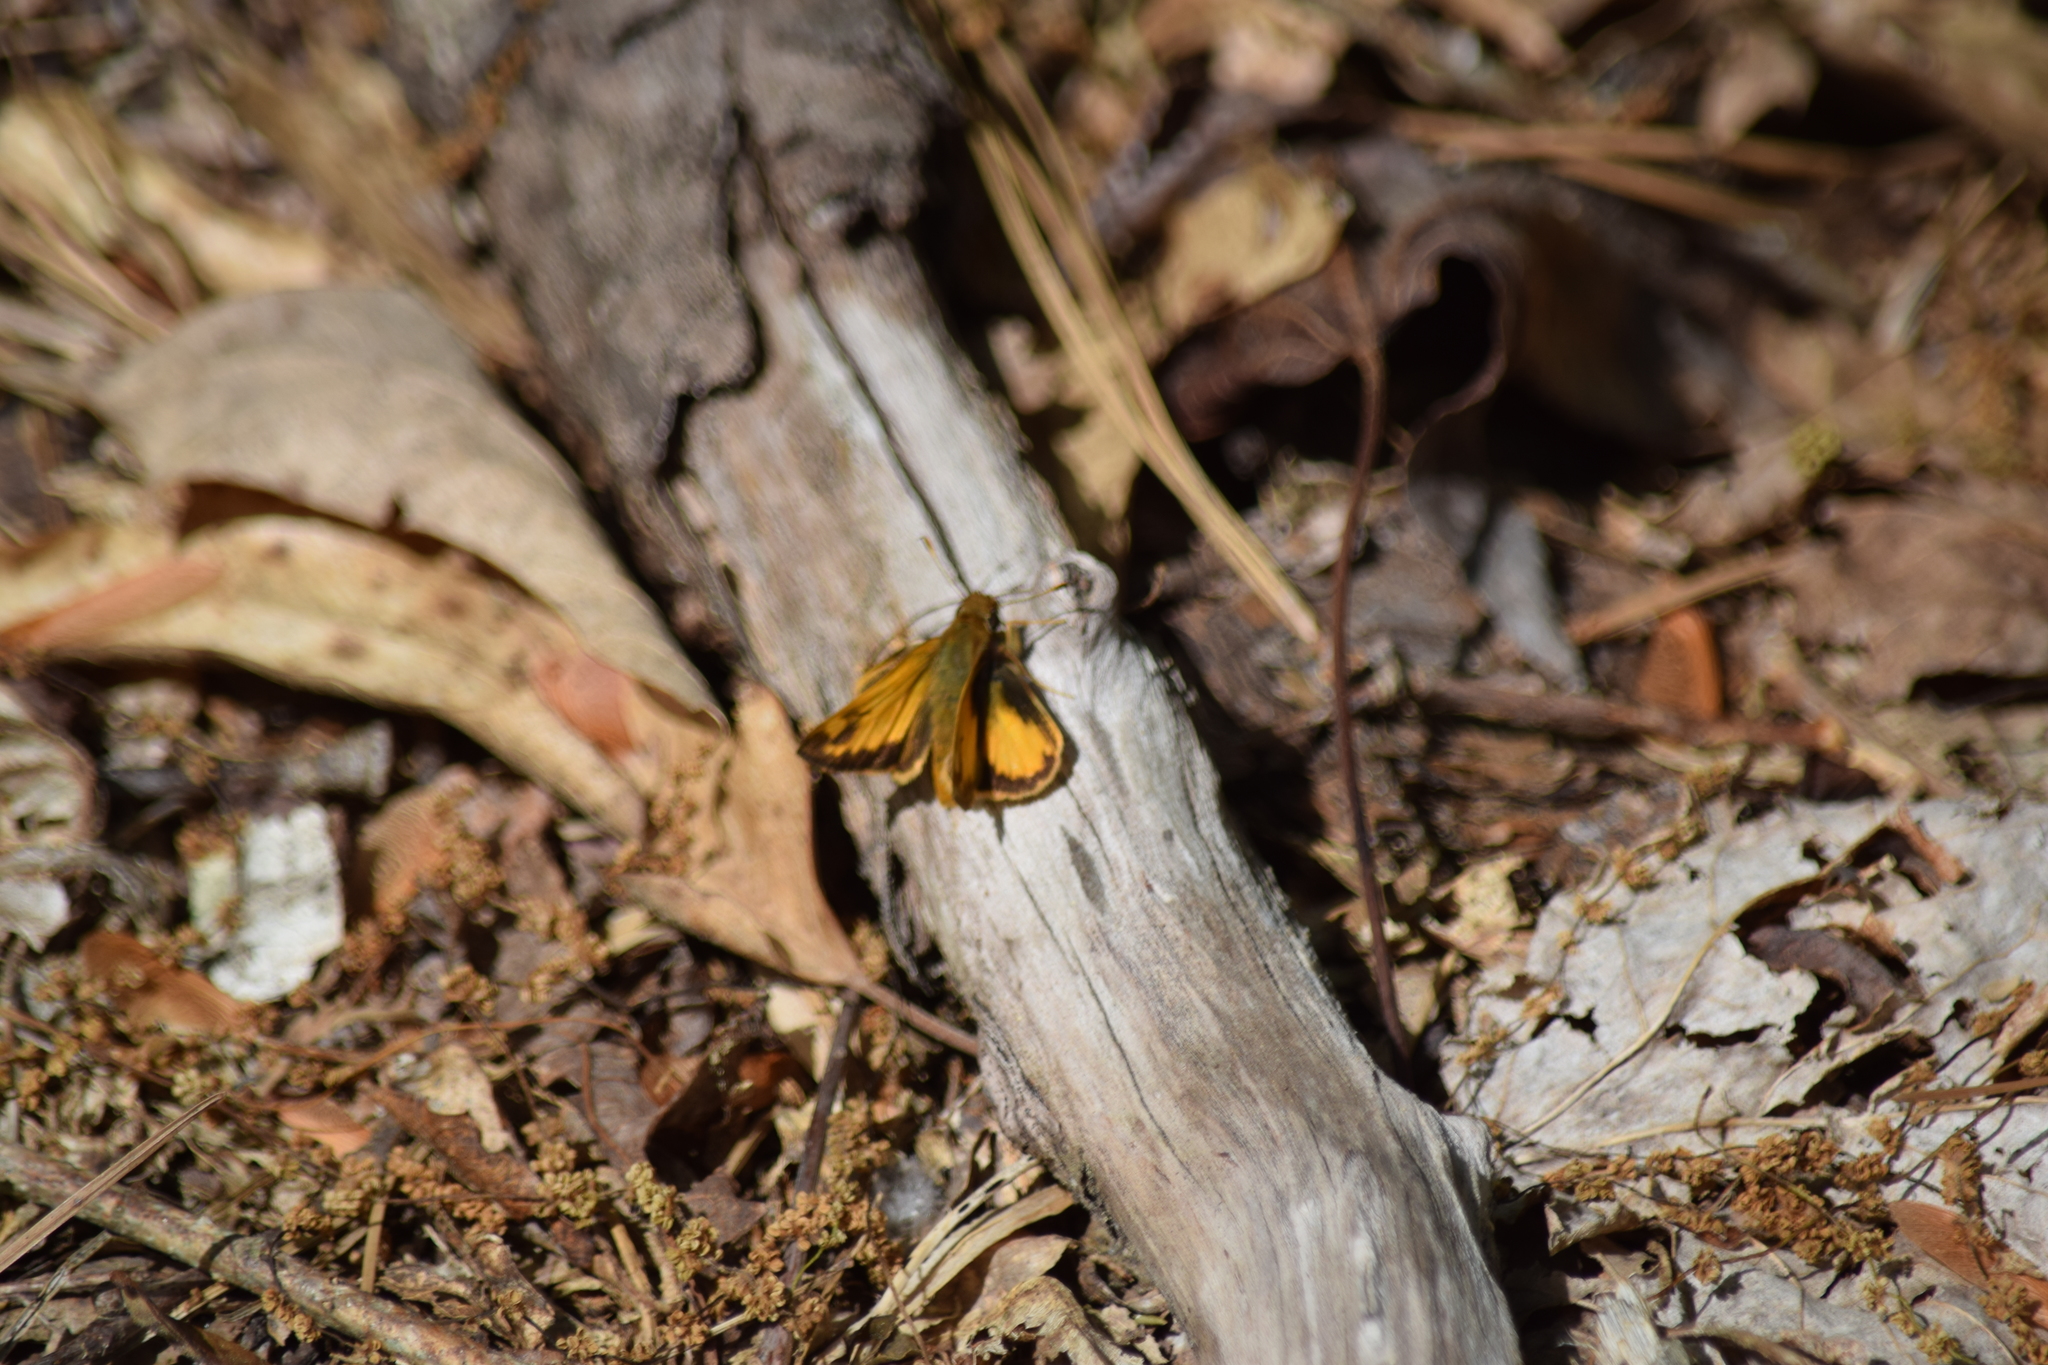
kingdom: Animalia
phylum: Arthropoda
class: Insecta
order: Lepidoptera
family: Hesperiidae
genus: Lon
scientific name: Lon zabulon
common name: Zabulon skipper
